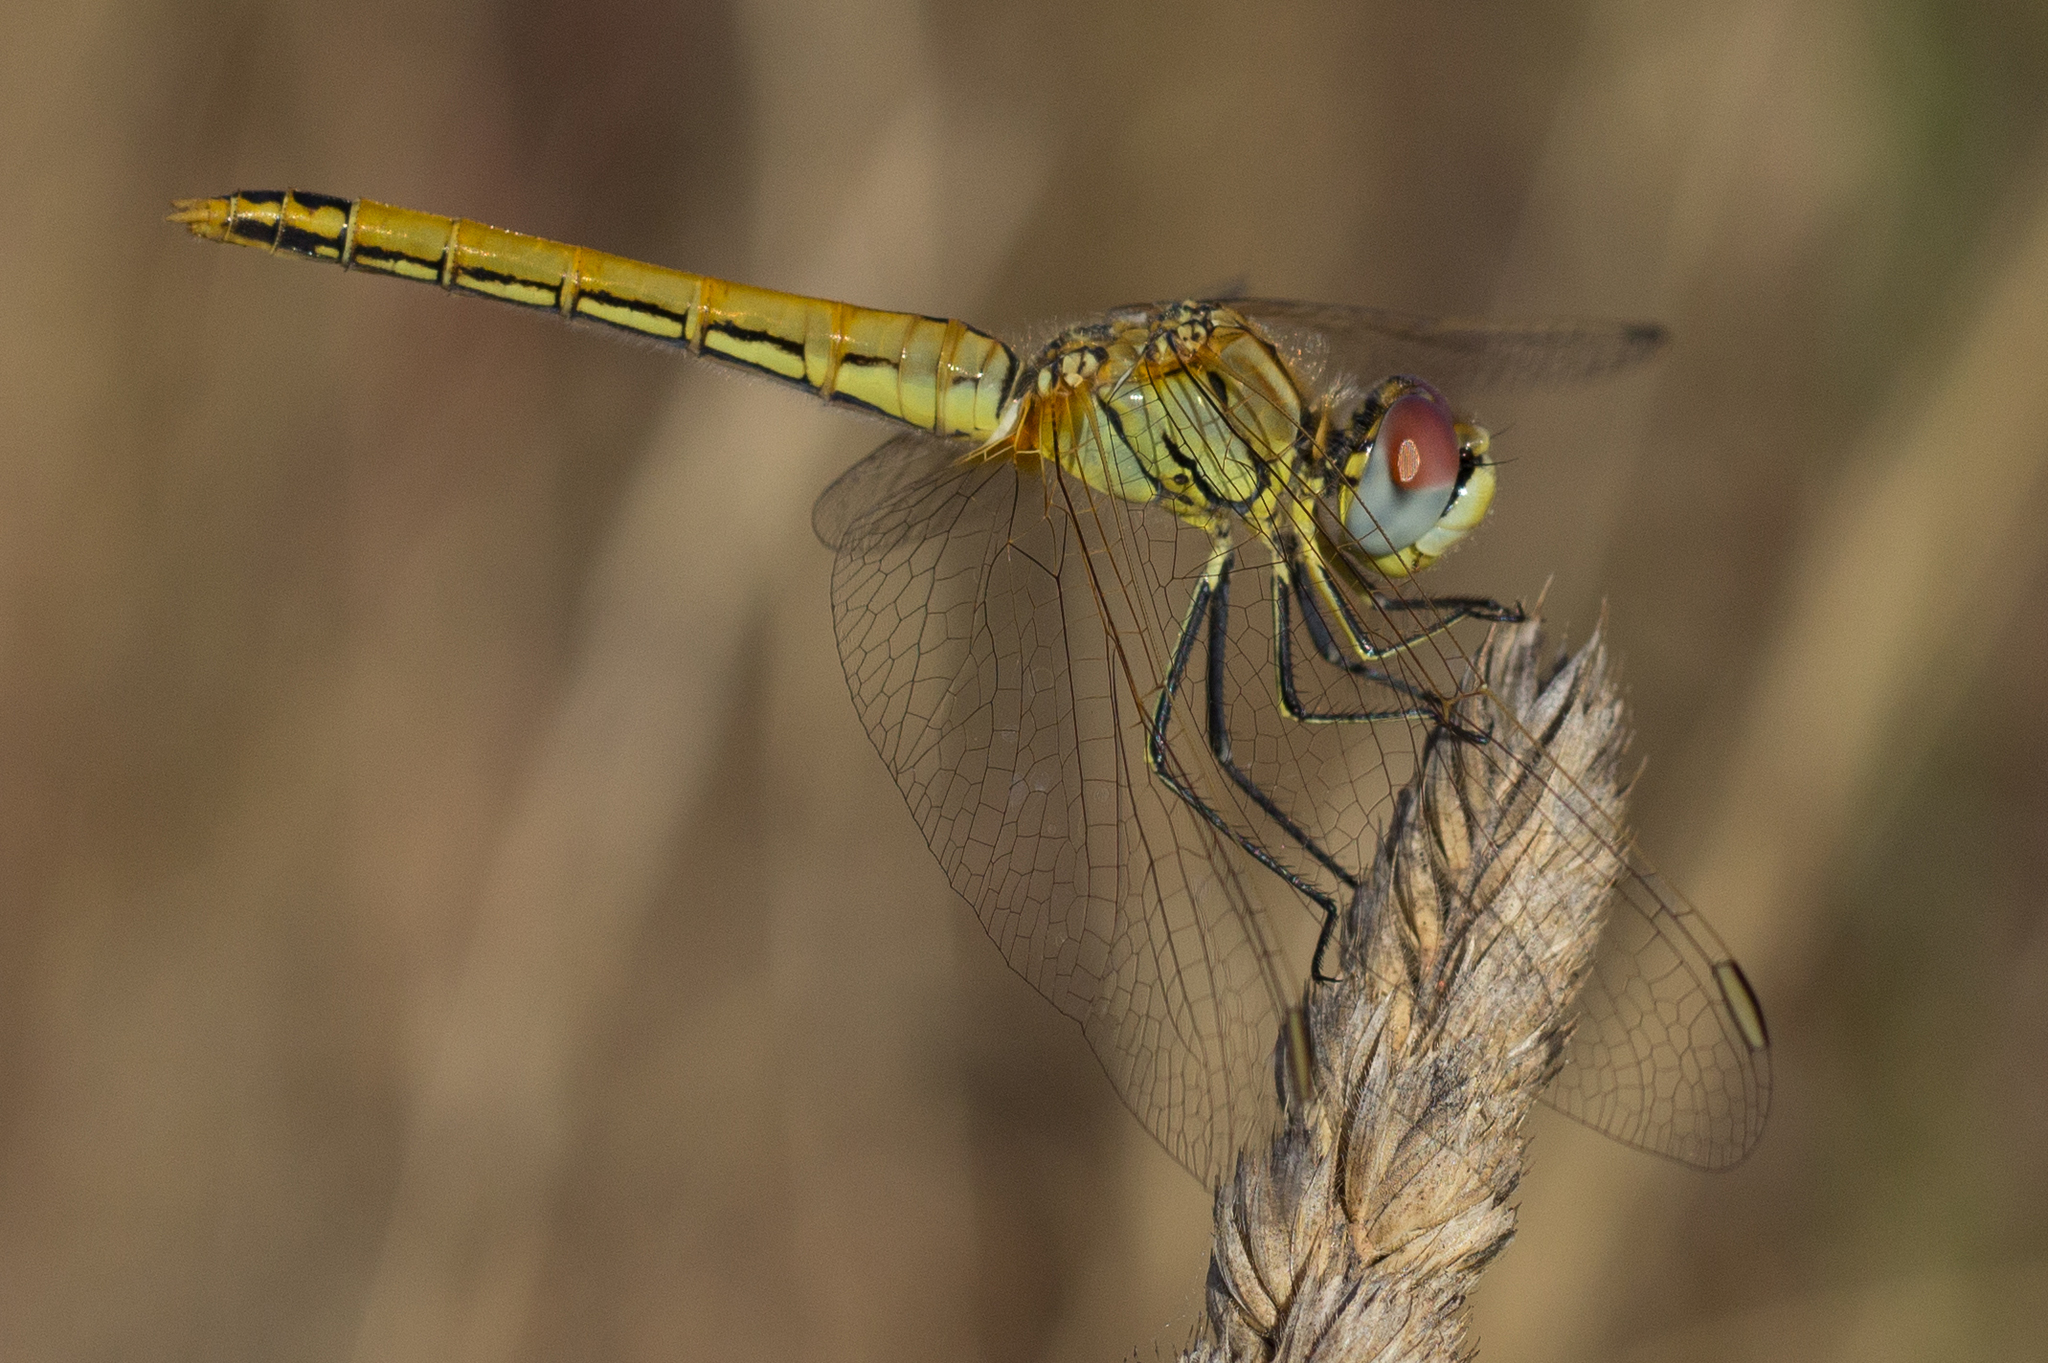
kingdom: Animalia
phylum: Arthropoda
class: Insecta
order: Odonata
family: Libellulidae
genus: Sympetrum
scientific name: Sympetrum fonscolombii
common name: Red-veined darter
